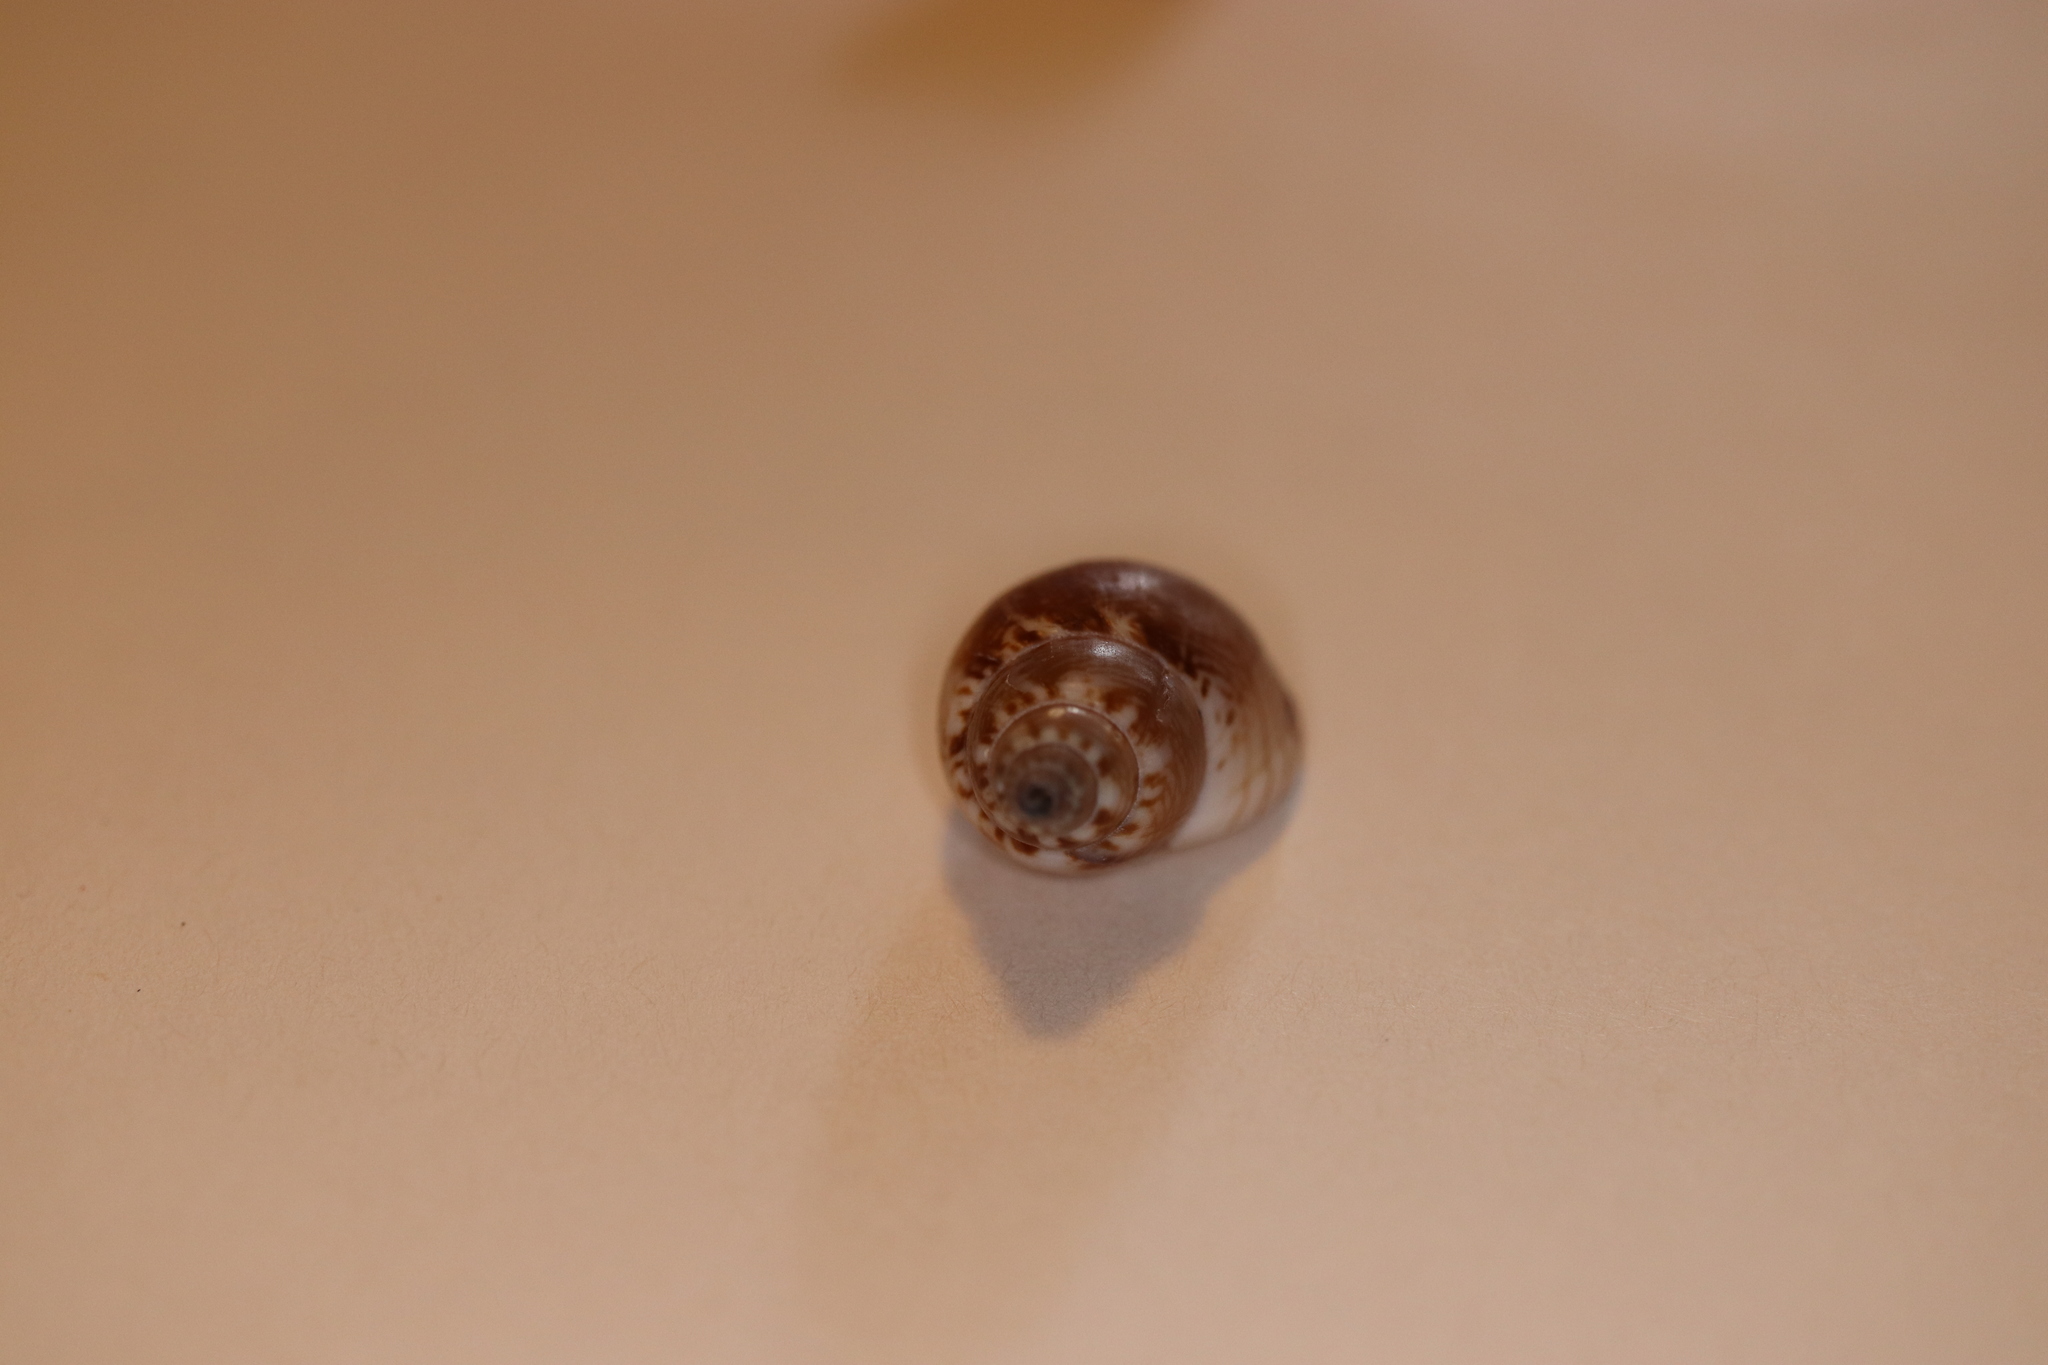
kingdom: Animalia
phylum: Mollusca
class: Gastropoda
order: Neogastropoda
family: Nassariidae
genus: Nassarius
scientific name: Nassarius sufflatus
